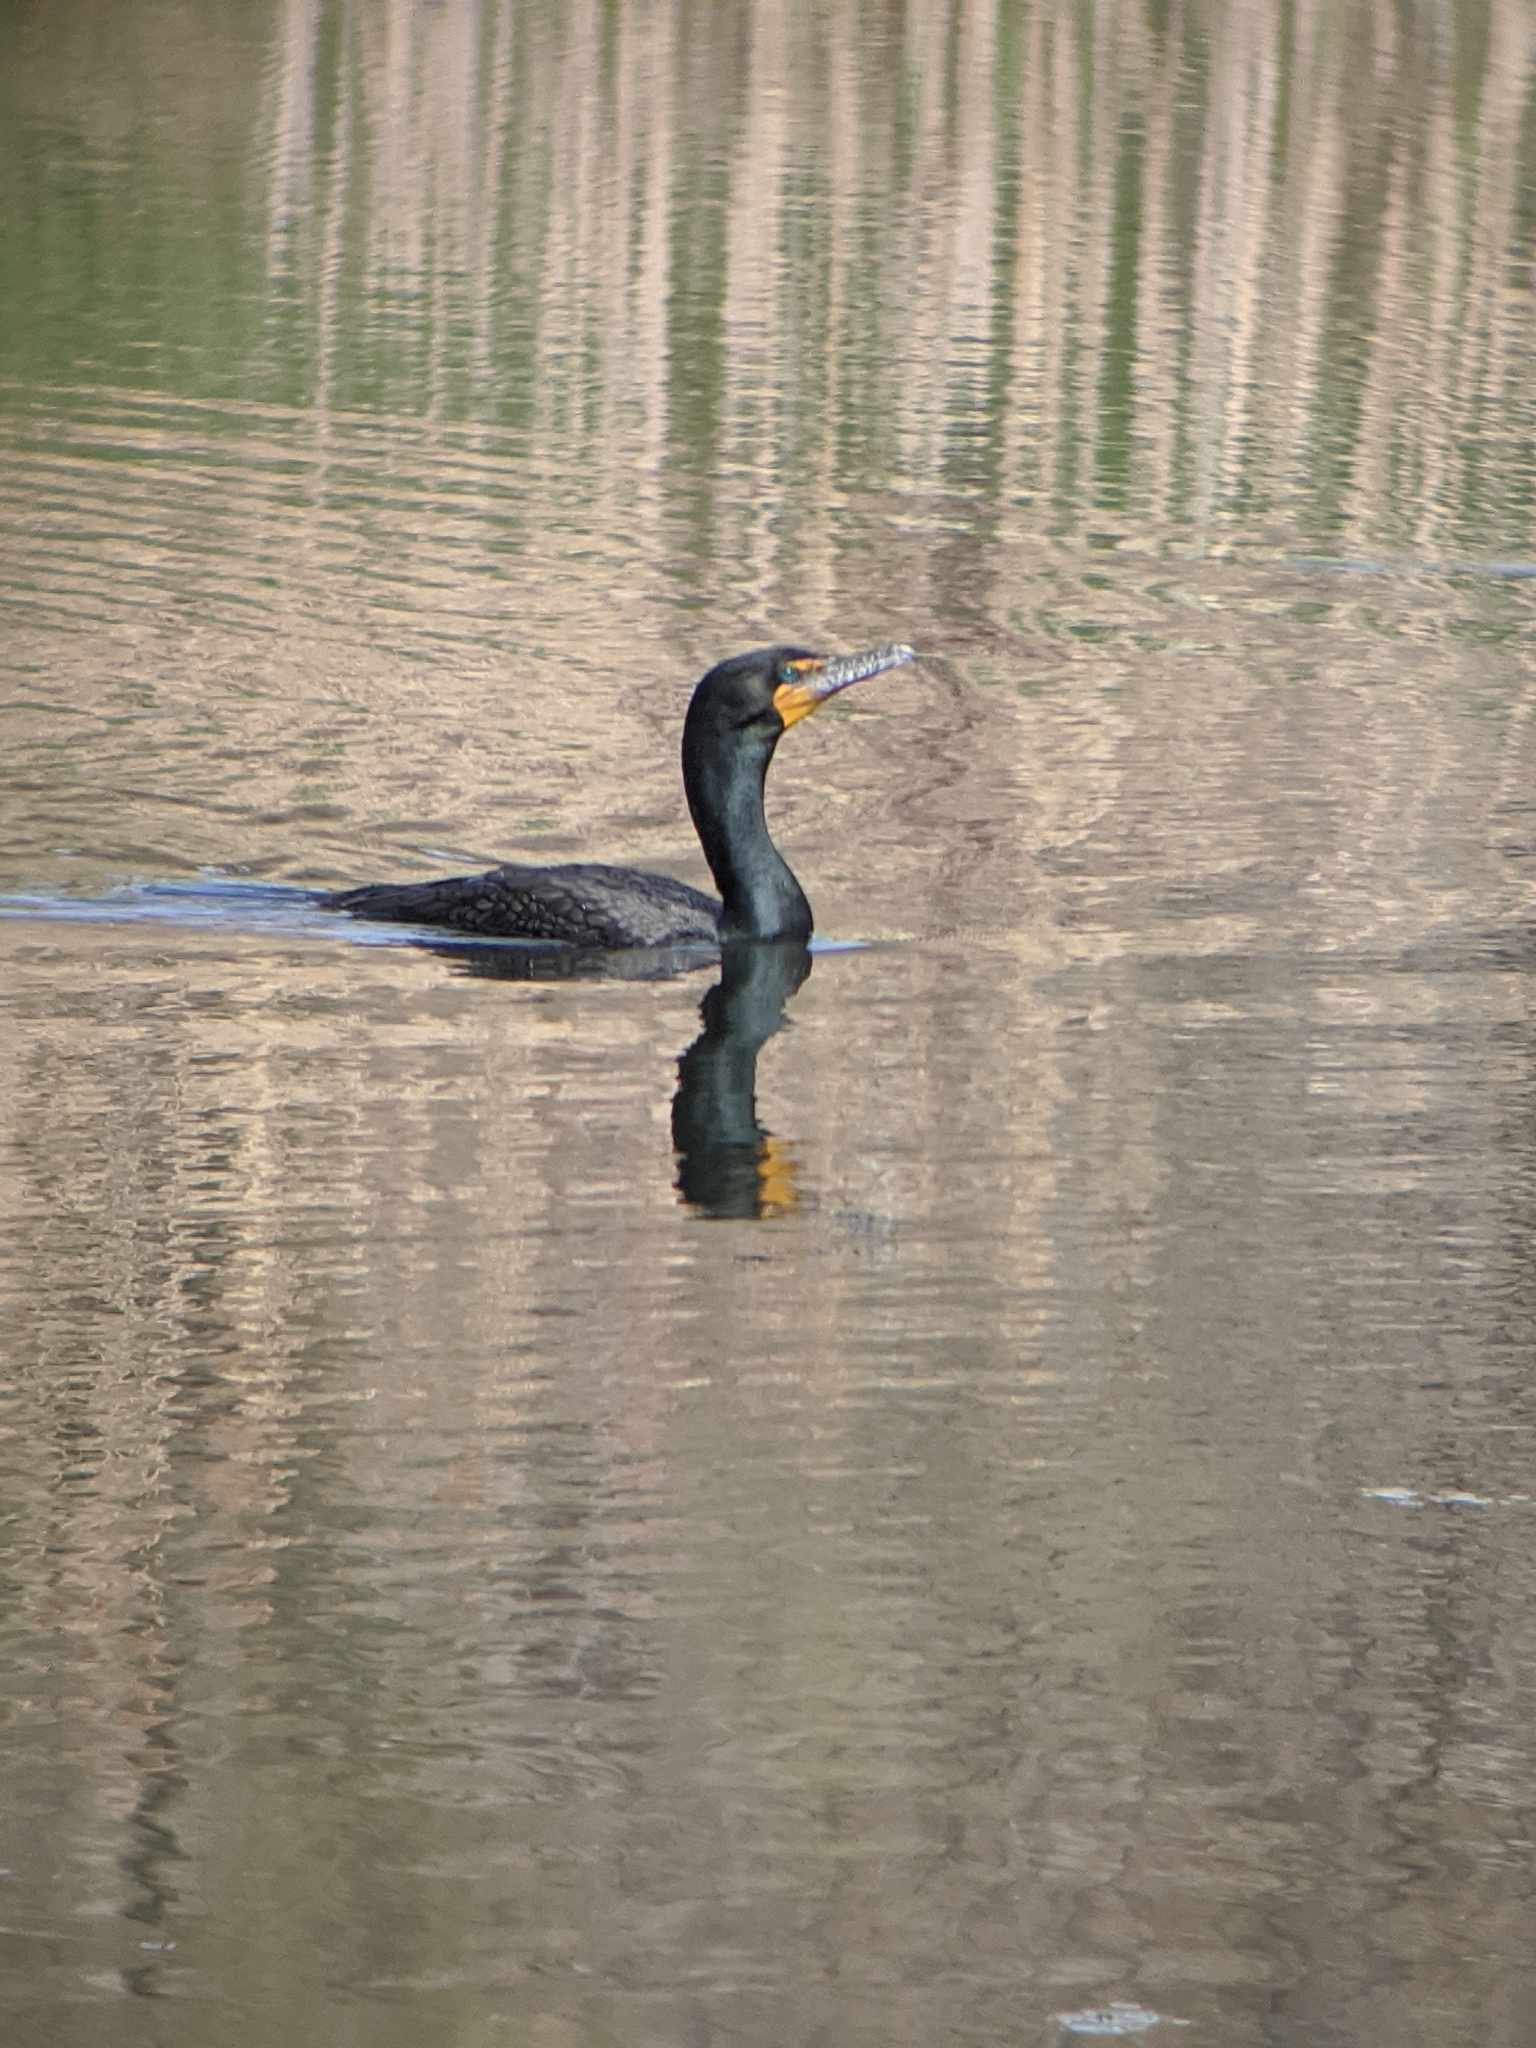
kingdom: Animalia
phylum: Chordata
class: Aves
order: Suliformes
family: Phalacrocoracidae
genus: Phalacrocorax
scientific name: Phalacrocorax auritus
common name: Double-crested cormorant
